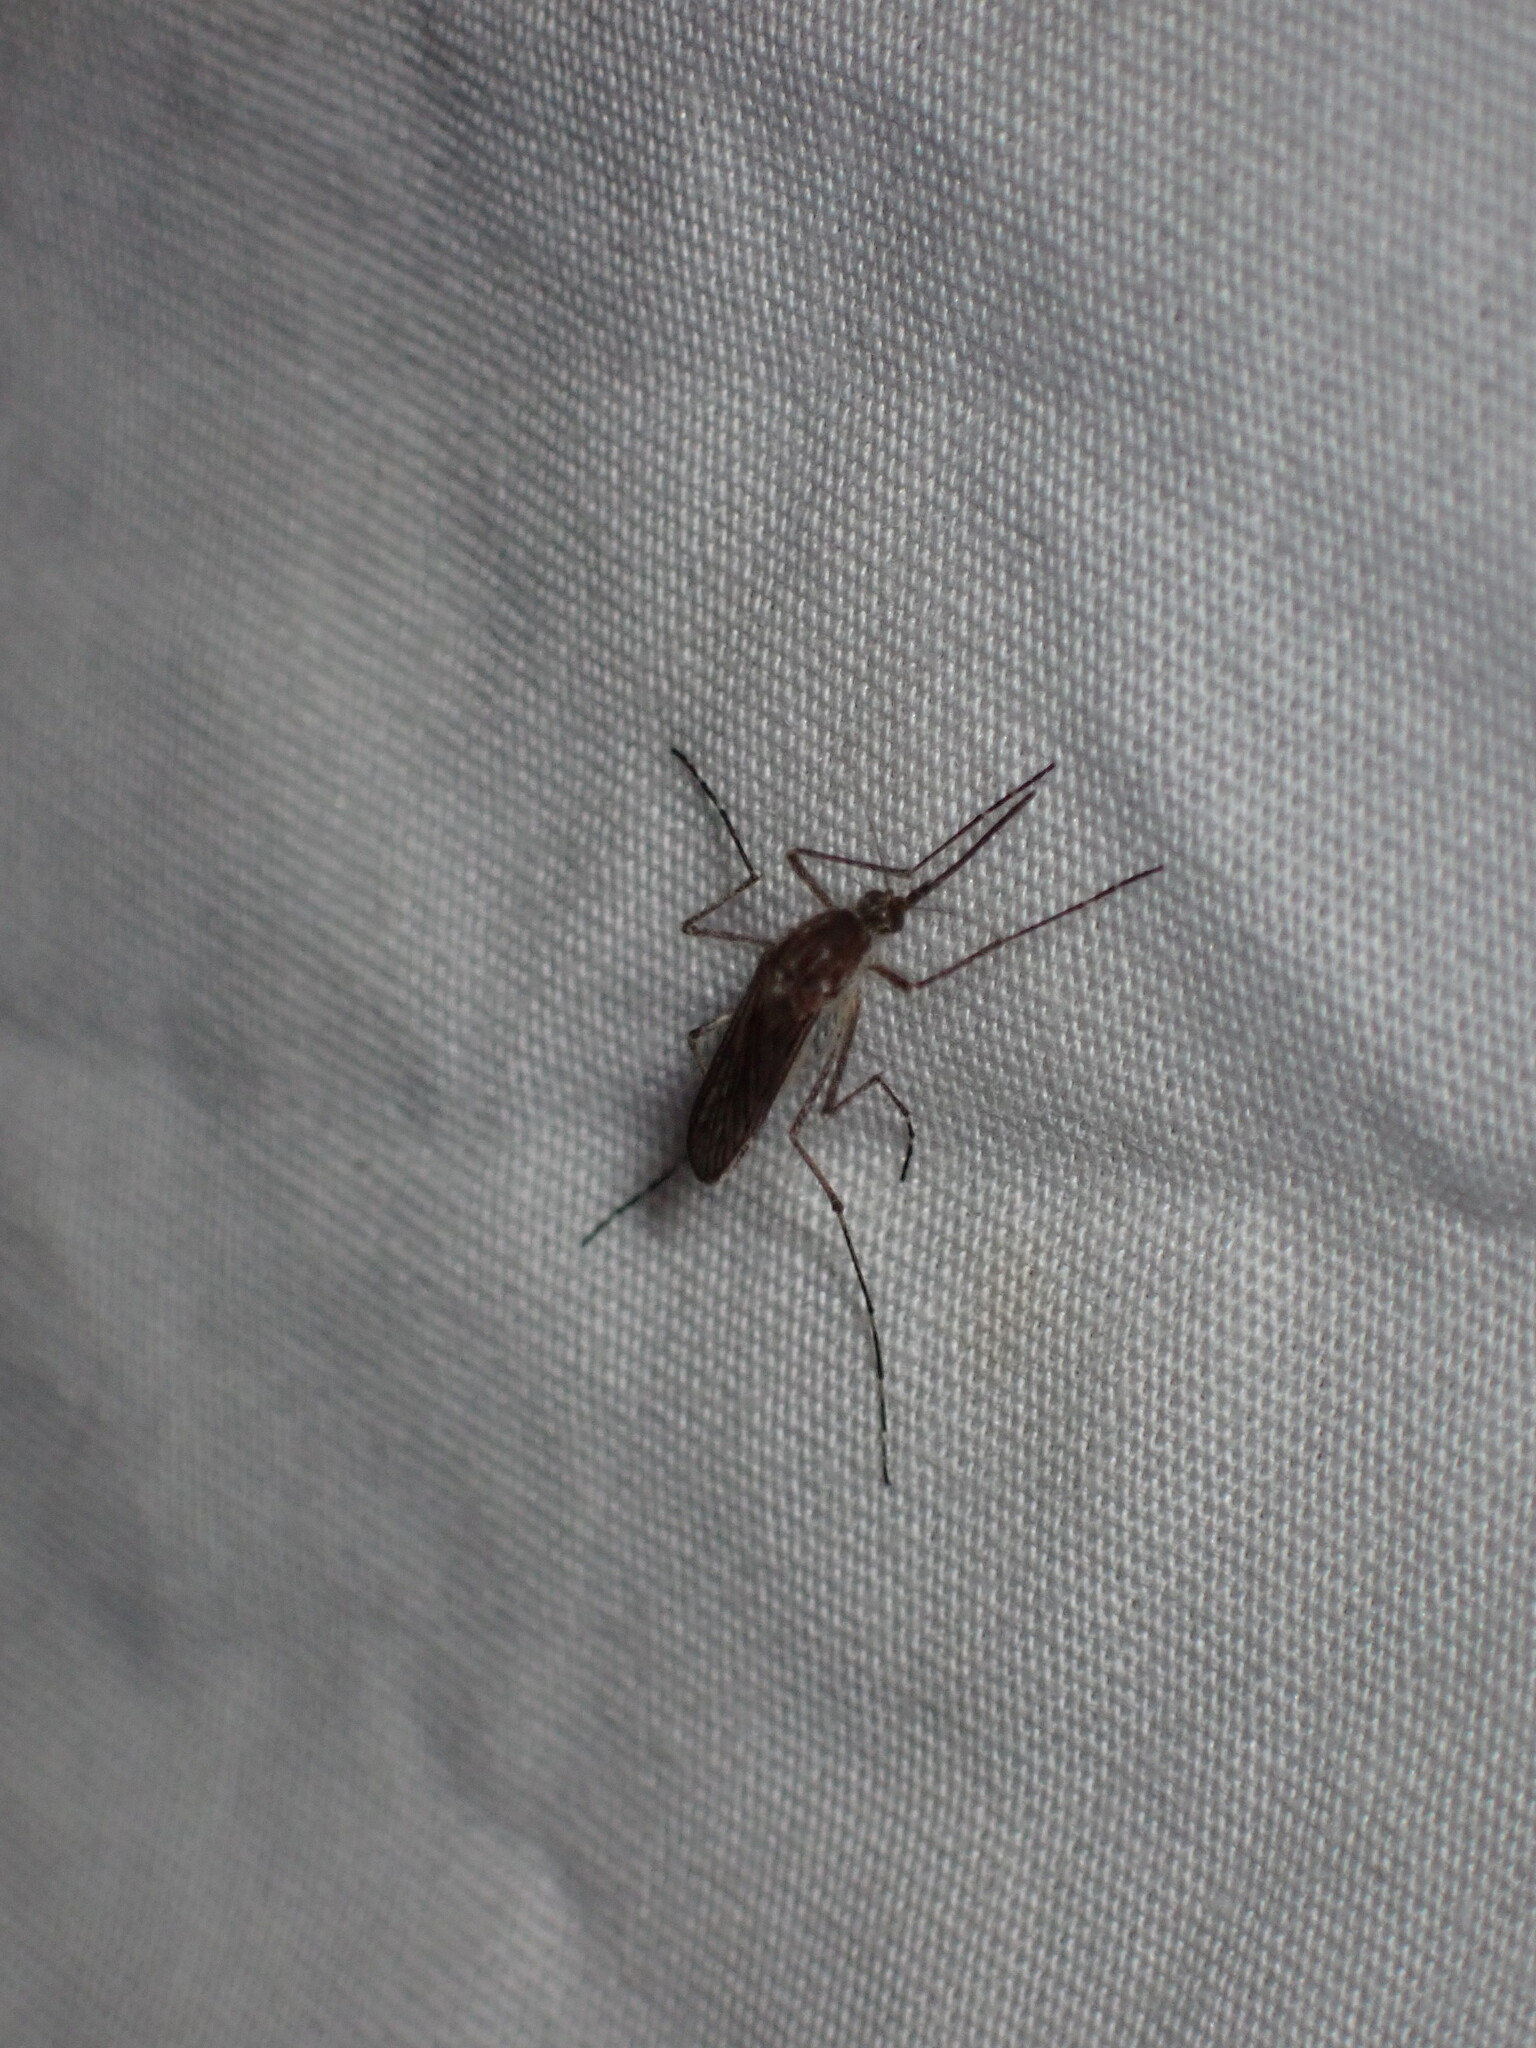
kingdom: Animalia
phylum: Arthropoda
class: Insecta
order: Diptera
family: Culicidae
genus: Aedes
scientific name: Aedes increpitus
